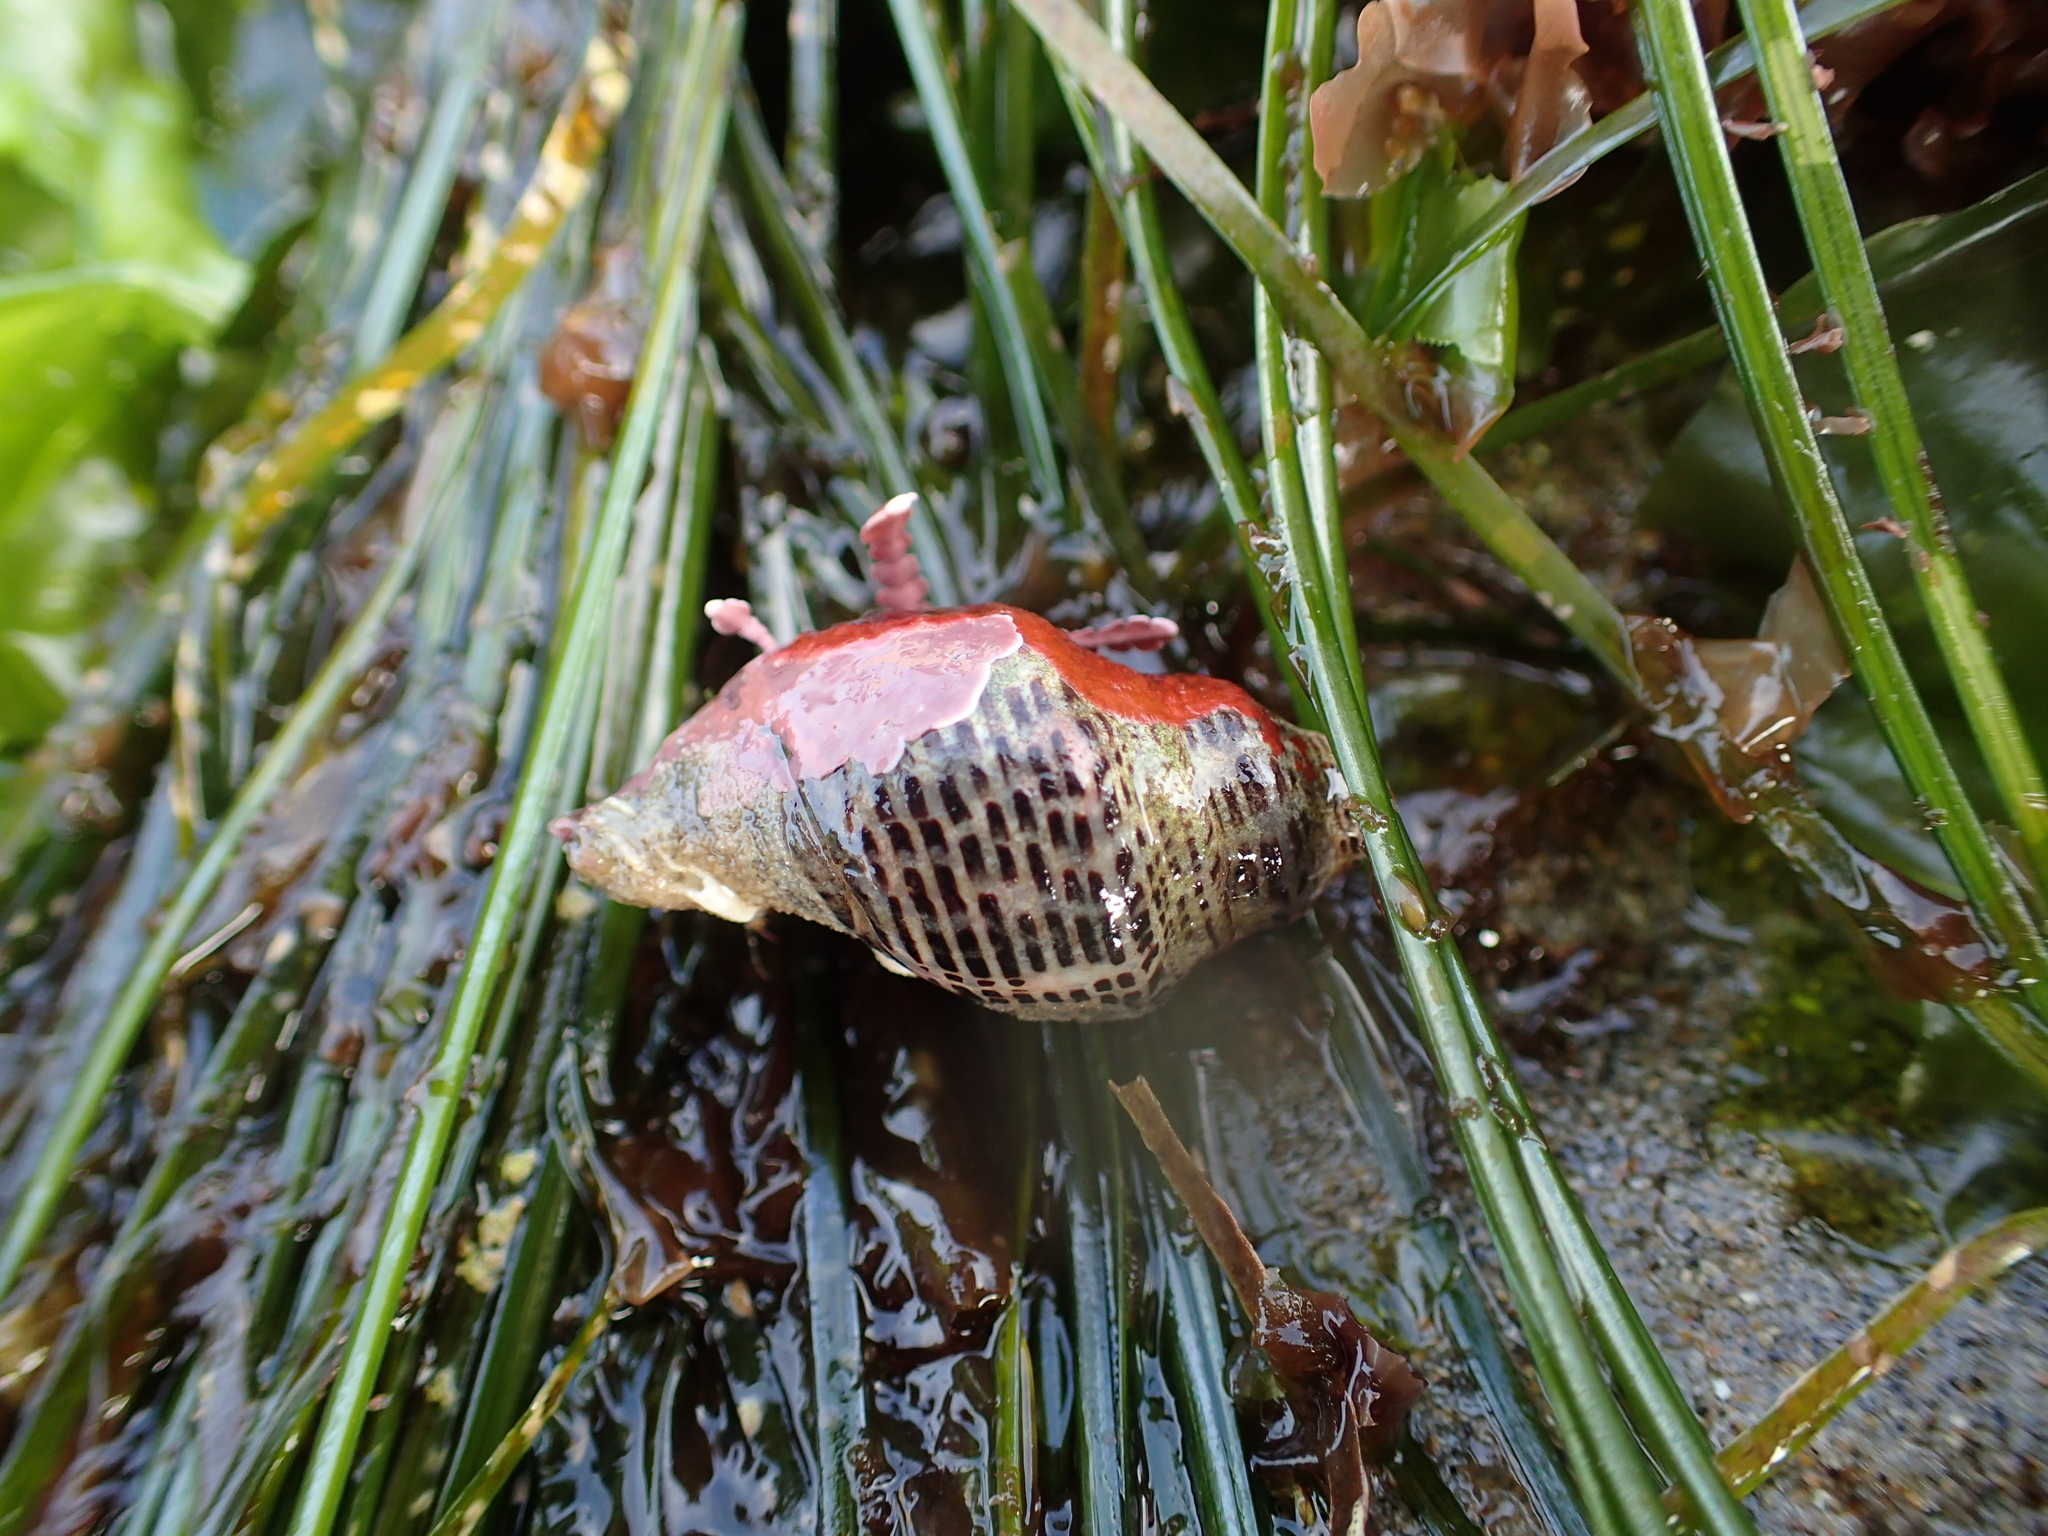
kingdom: Animalia
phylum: Mollusca
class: Gastropoda
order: Neogastropoda
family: Muricidae
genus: Acanthinucella
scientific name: Acanthinucella spirata
